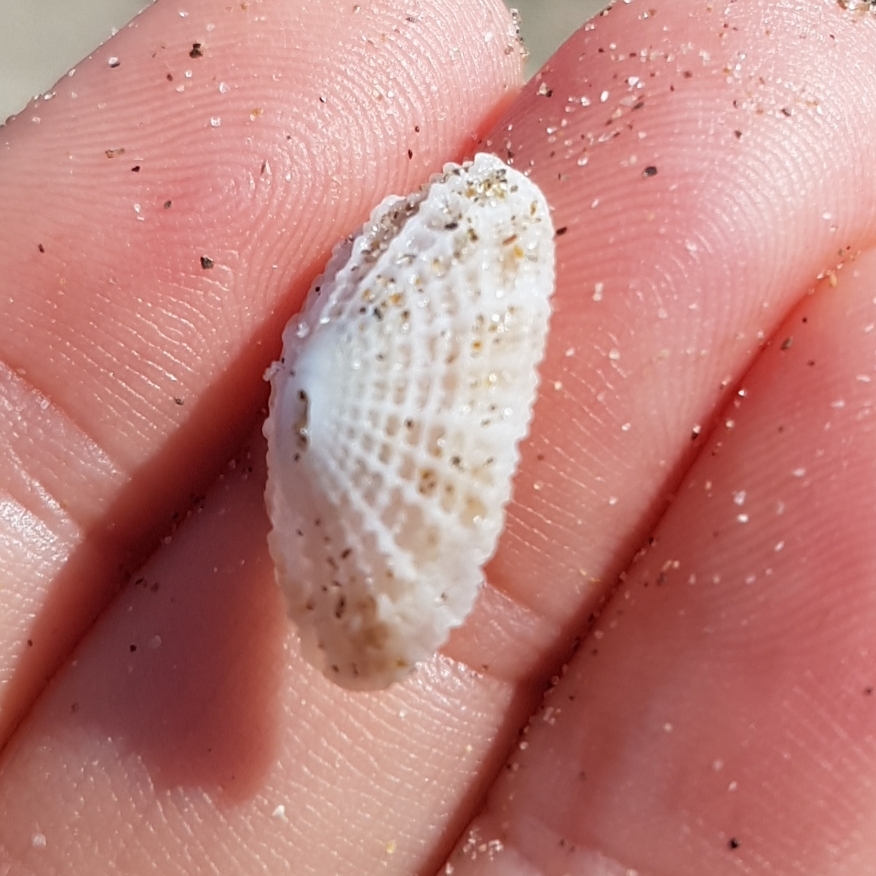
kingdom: Animalia
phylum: Mollusca
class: Gastropoda
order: Lepetellida
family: Fissurellidae
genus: Diodora
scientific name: Diodora graeca
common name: Common keyhole limpet
